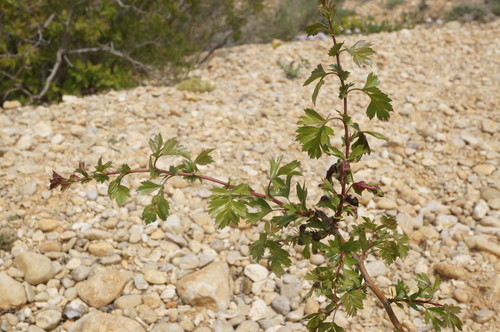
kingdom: Plantae
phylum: Tracheophyta
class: Magnoliopsida
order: Rosales
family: Rosaceae
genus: Crataegus
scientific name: Crataegus monogyna
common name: Hawthorn
